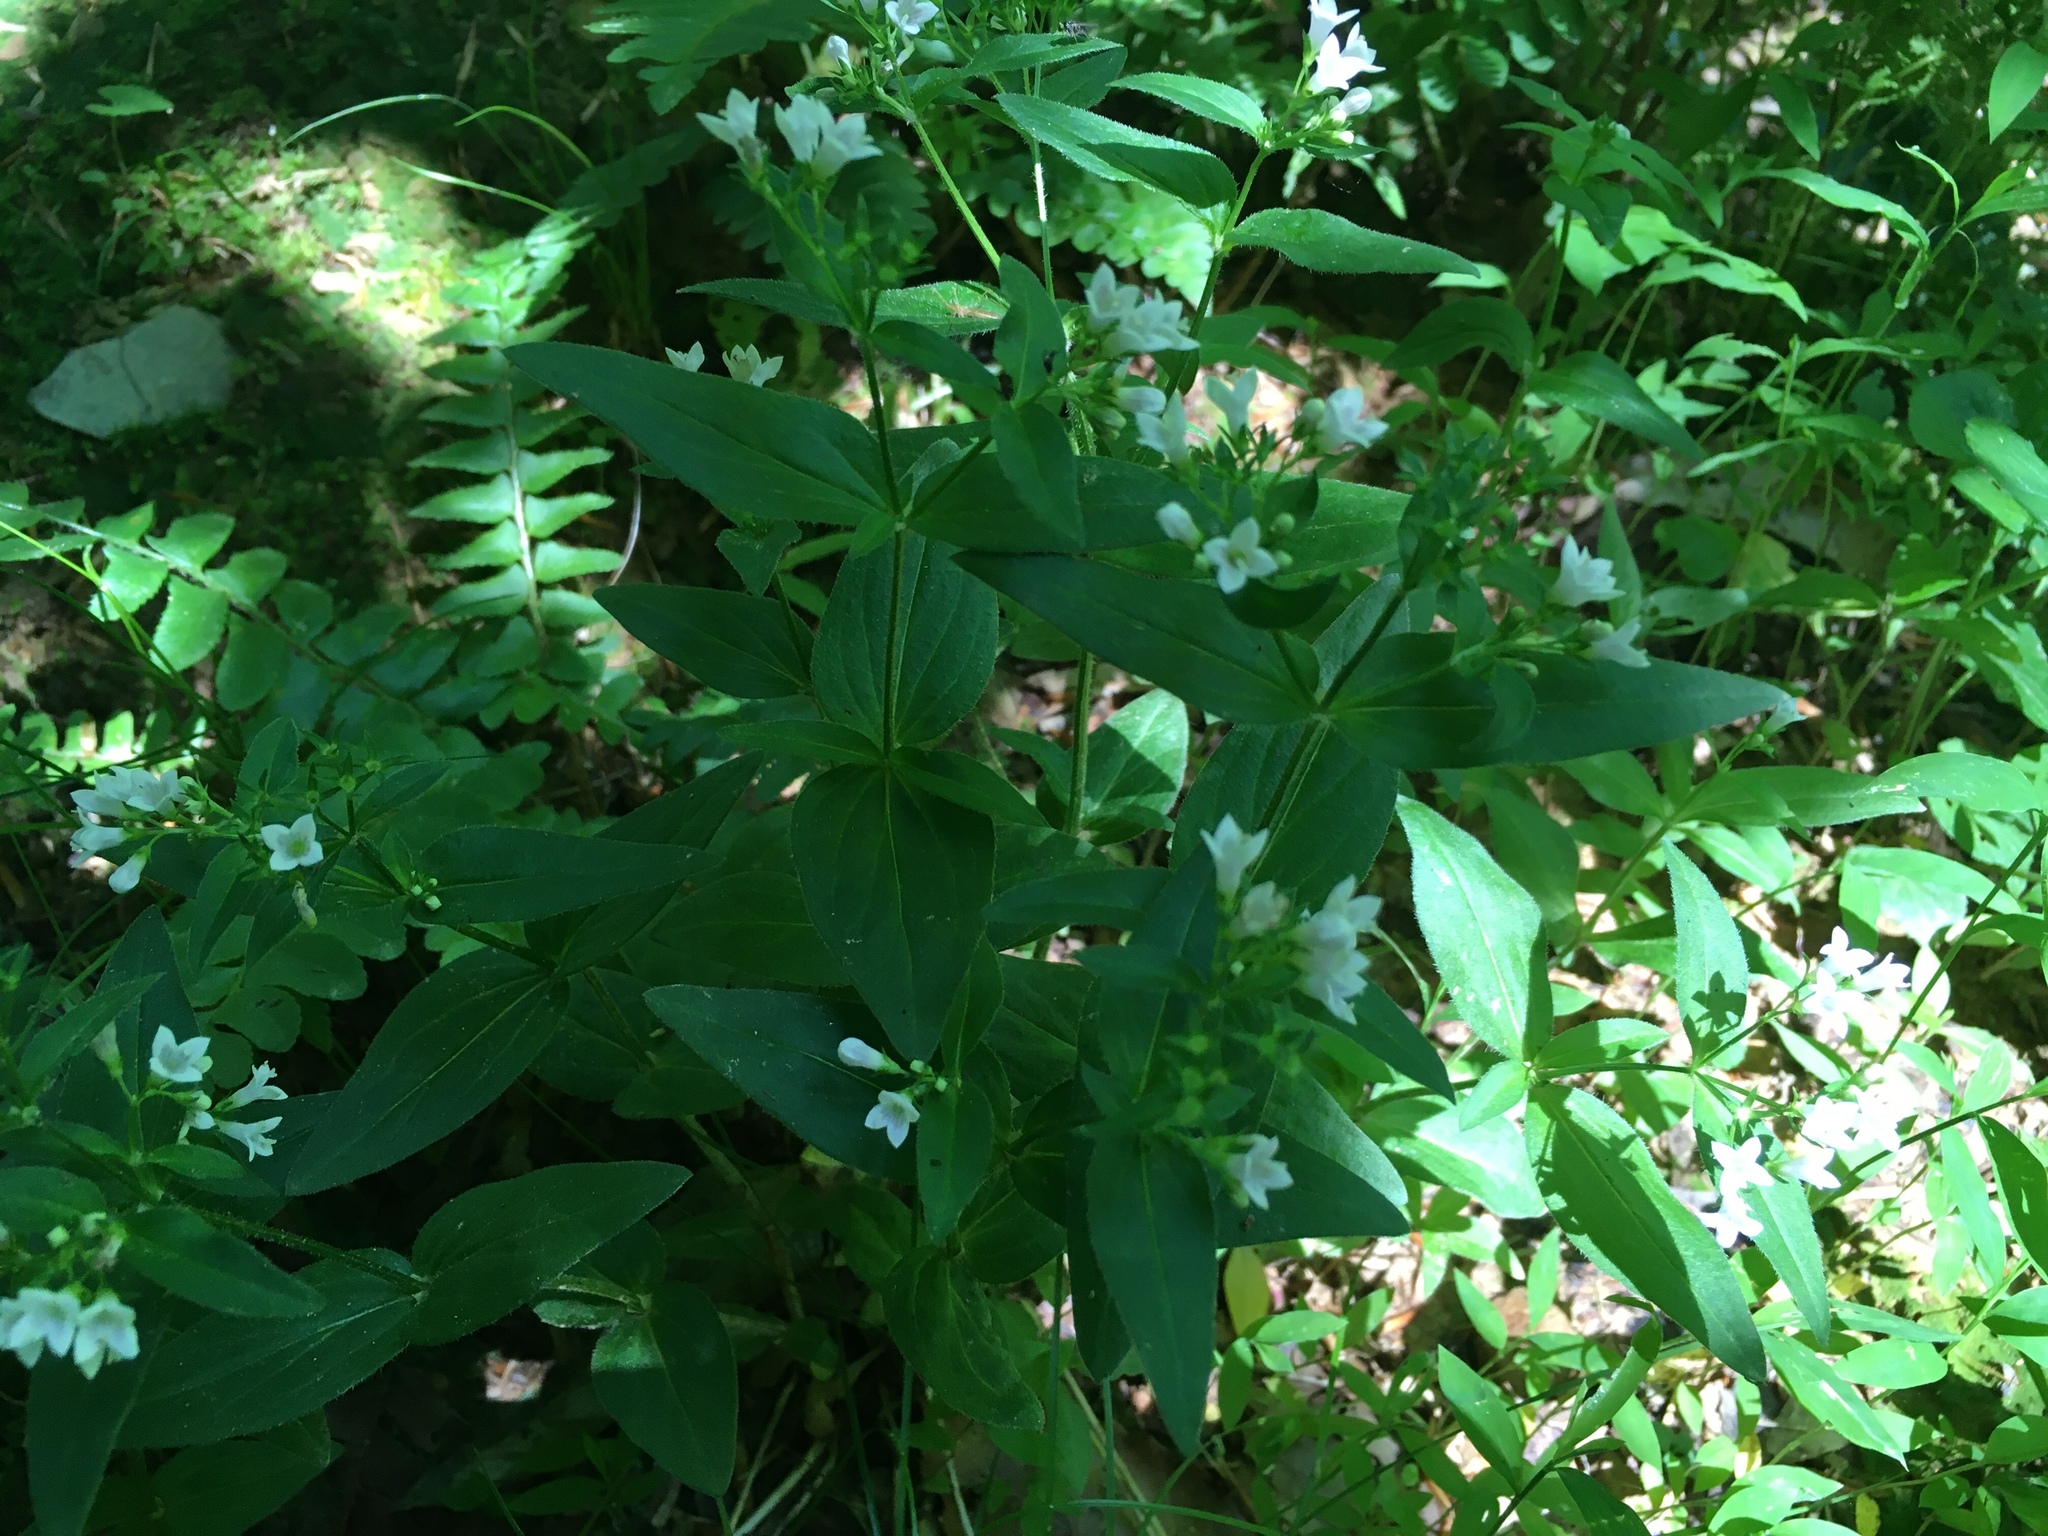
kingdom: Plantae
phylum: Tracheophyta
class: Magnoliopsida
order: Gentianales
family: Rubiaceae
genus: Houstonia
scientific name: Houstonia purpurea
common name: Summer bluet
